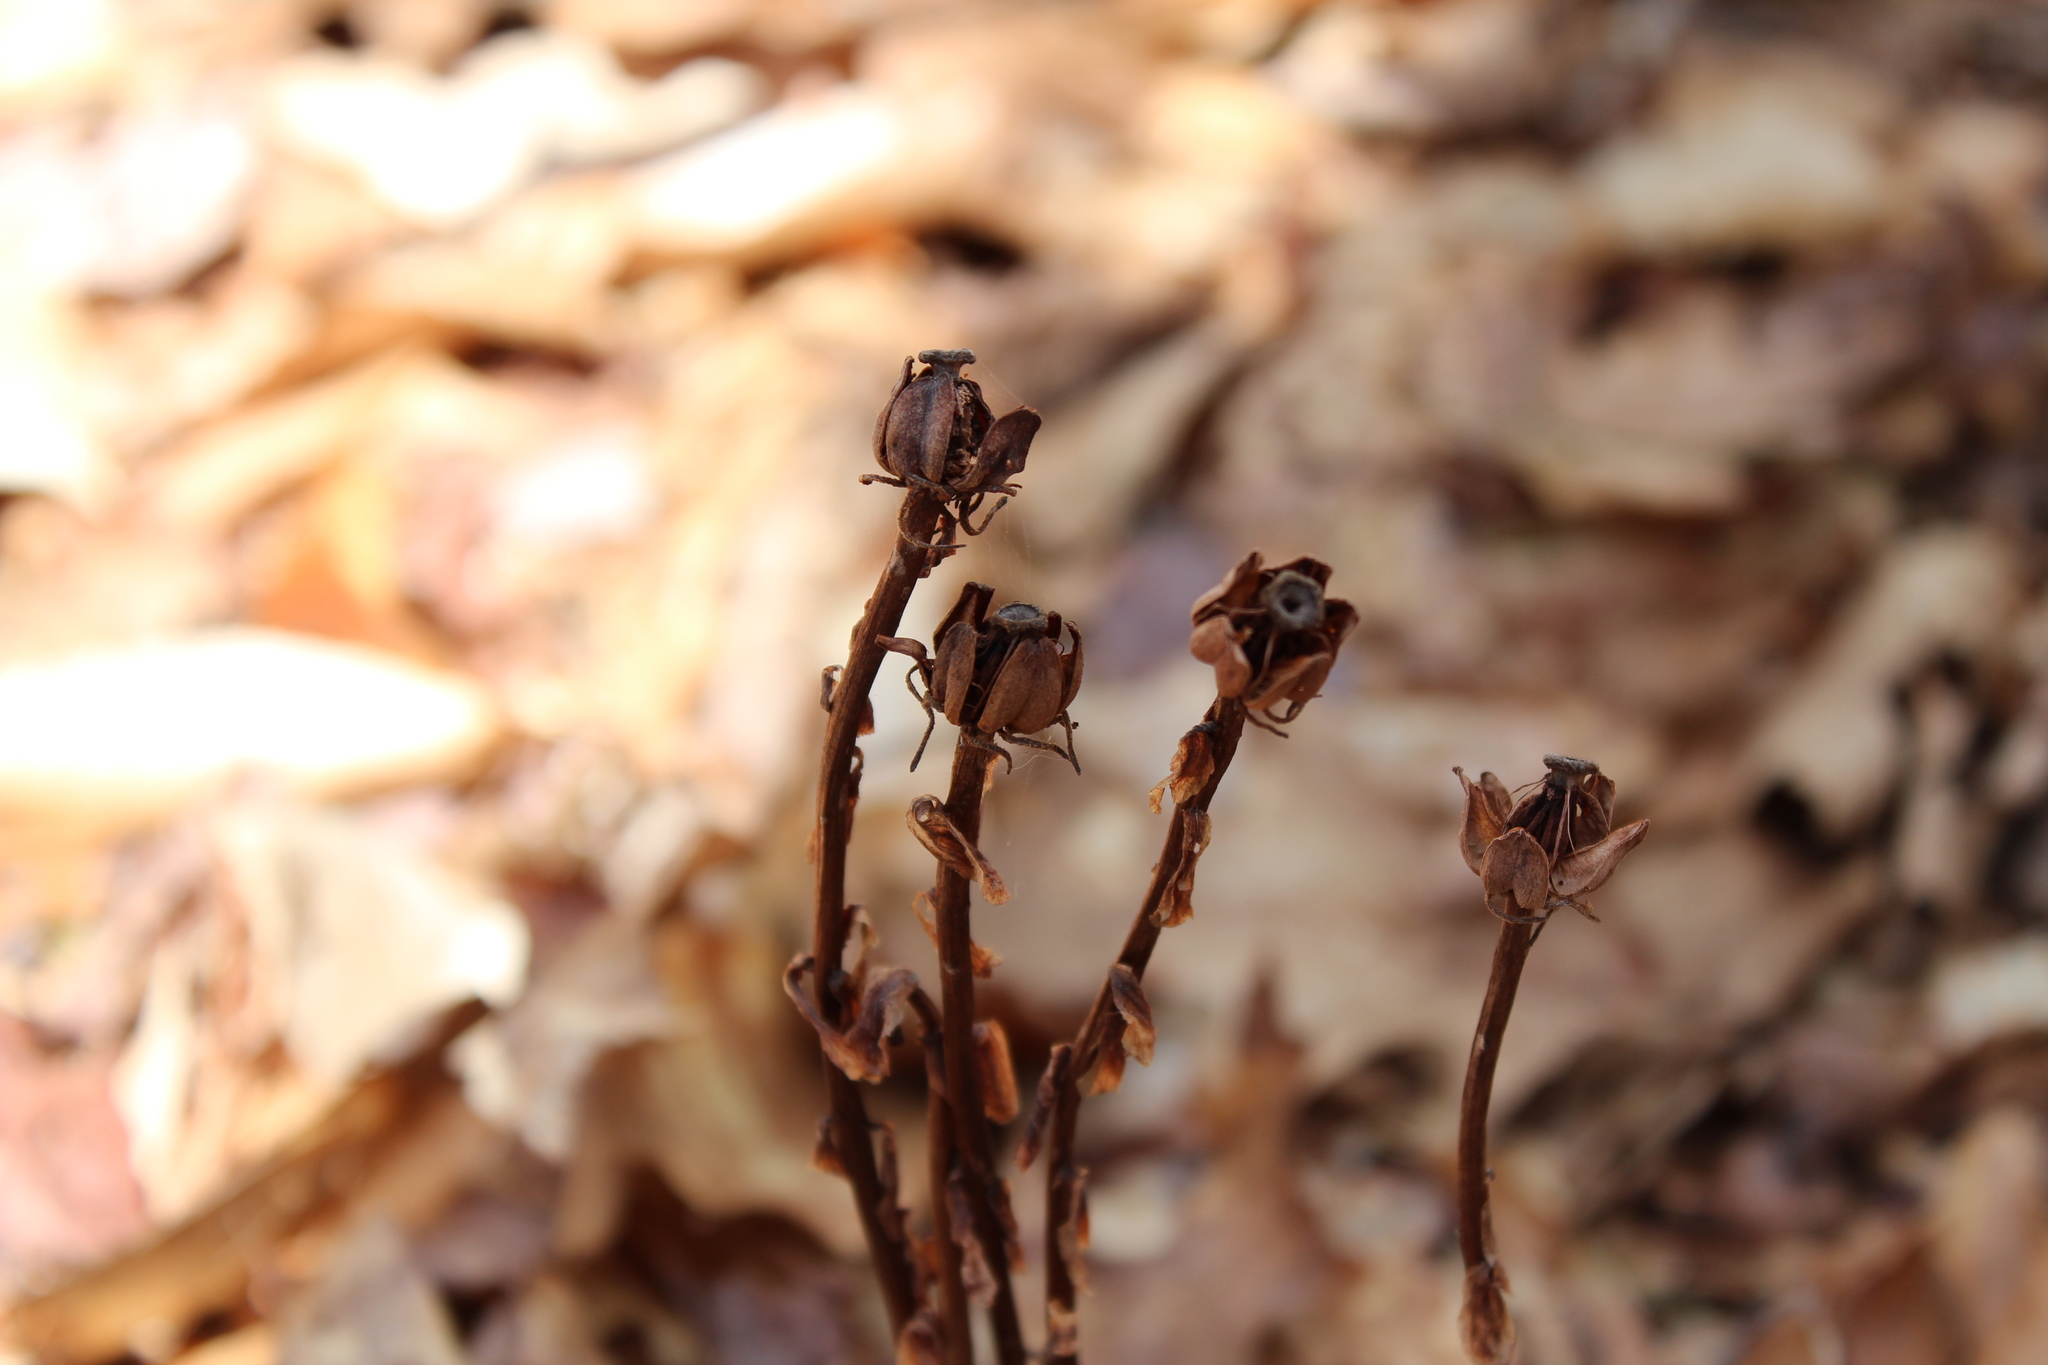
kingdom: Plantae
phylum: Tracheophyta
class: Magnoliopsida
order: Ericales
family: Ericaceae
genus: Monotropa
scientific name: Monotropa uniflora
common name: Convulsion root
